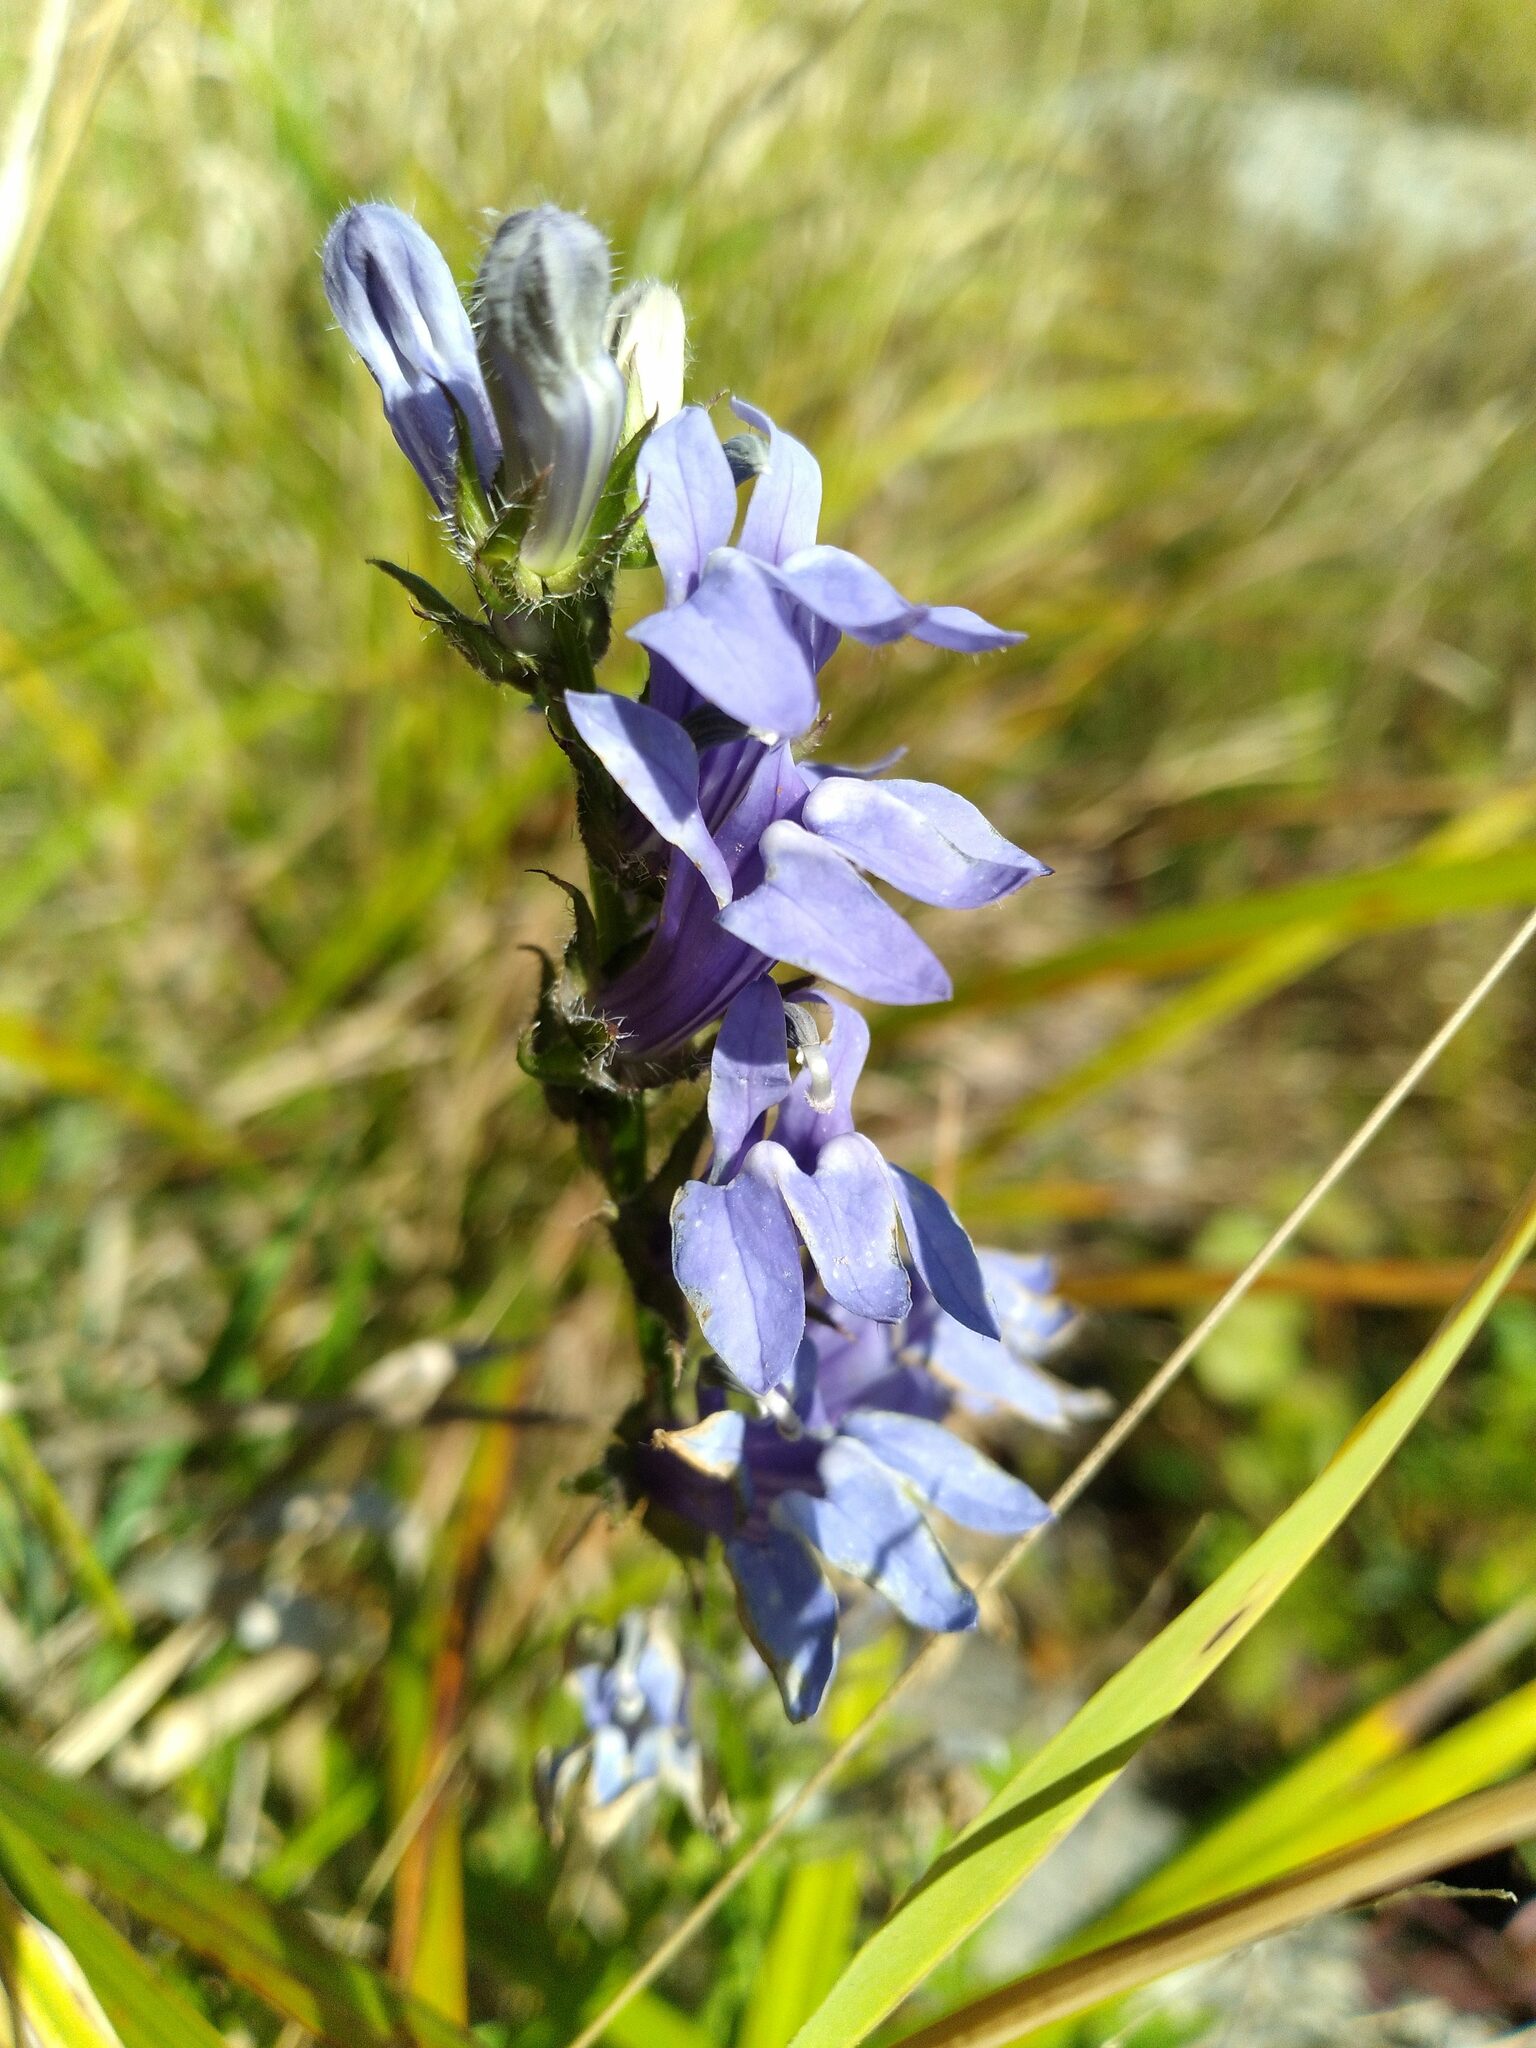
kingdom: Plantae
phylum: Tracheophyta
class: Magnoliopsida
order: Asterales
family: Campanulaceae
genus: Lobelia
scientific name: Lobelia siphilitica
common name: Great lobelia
